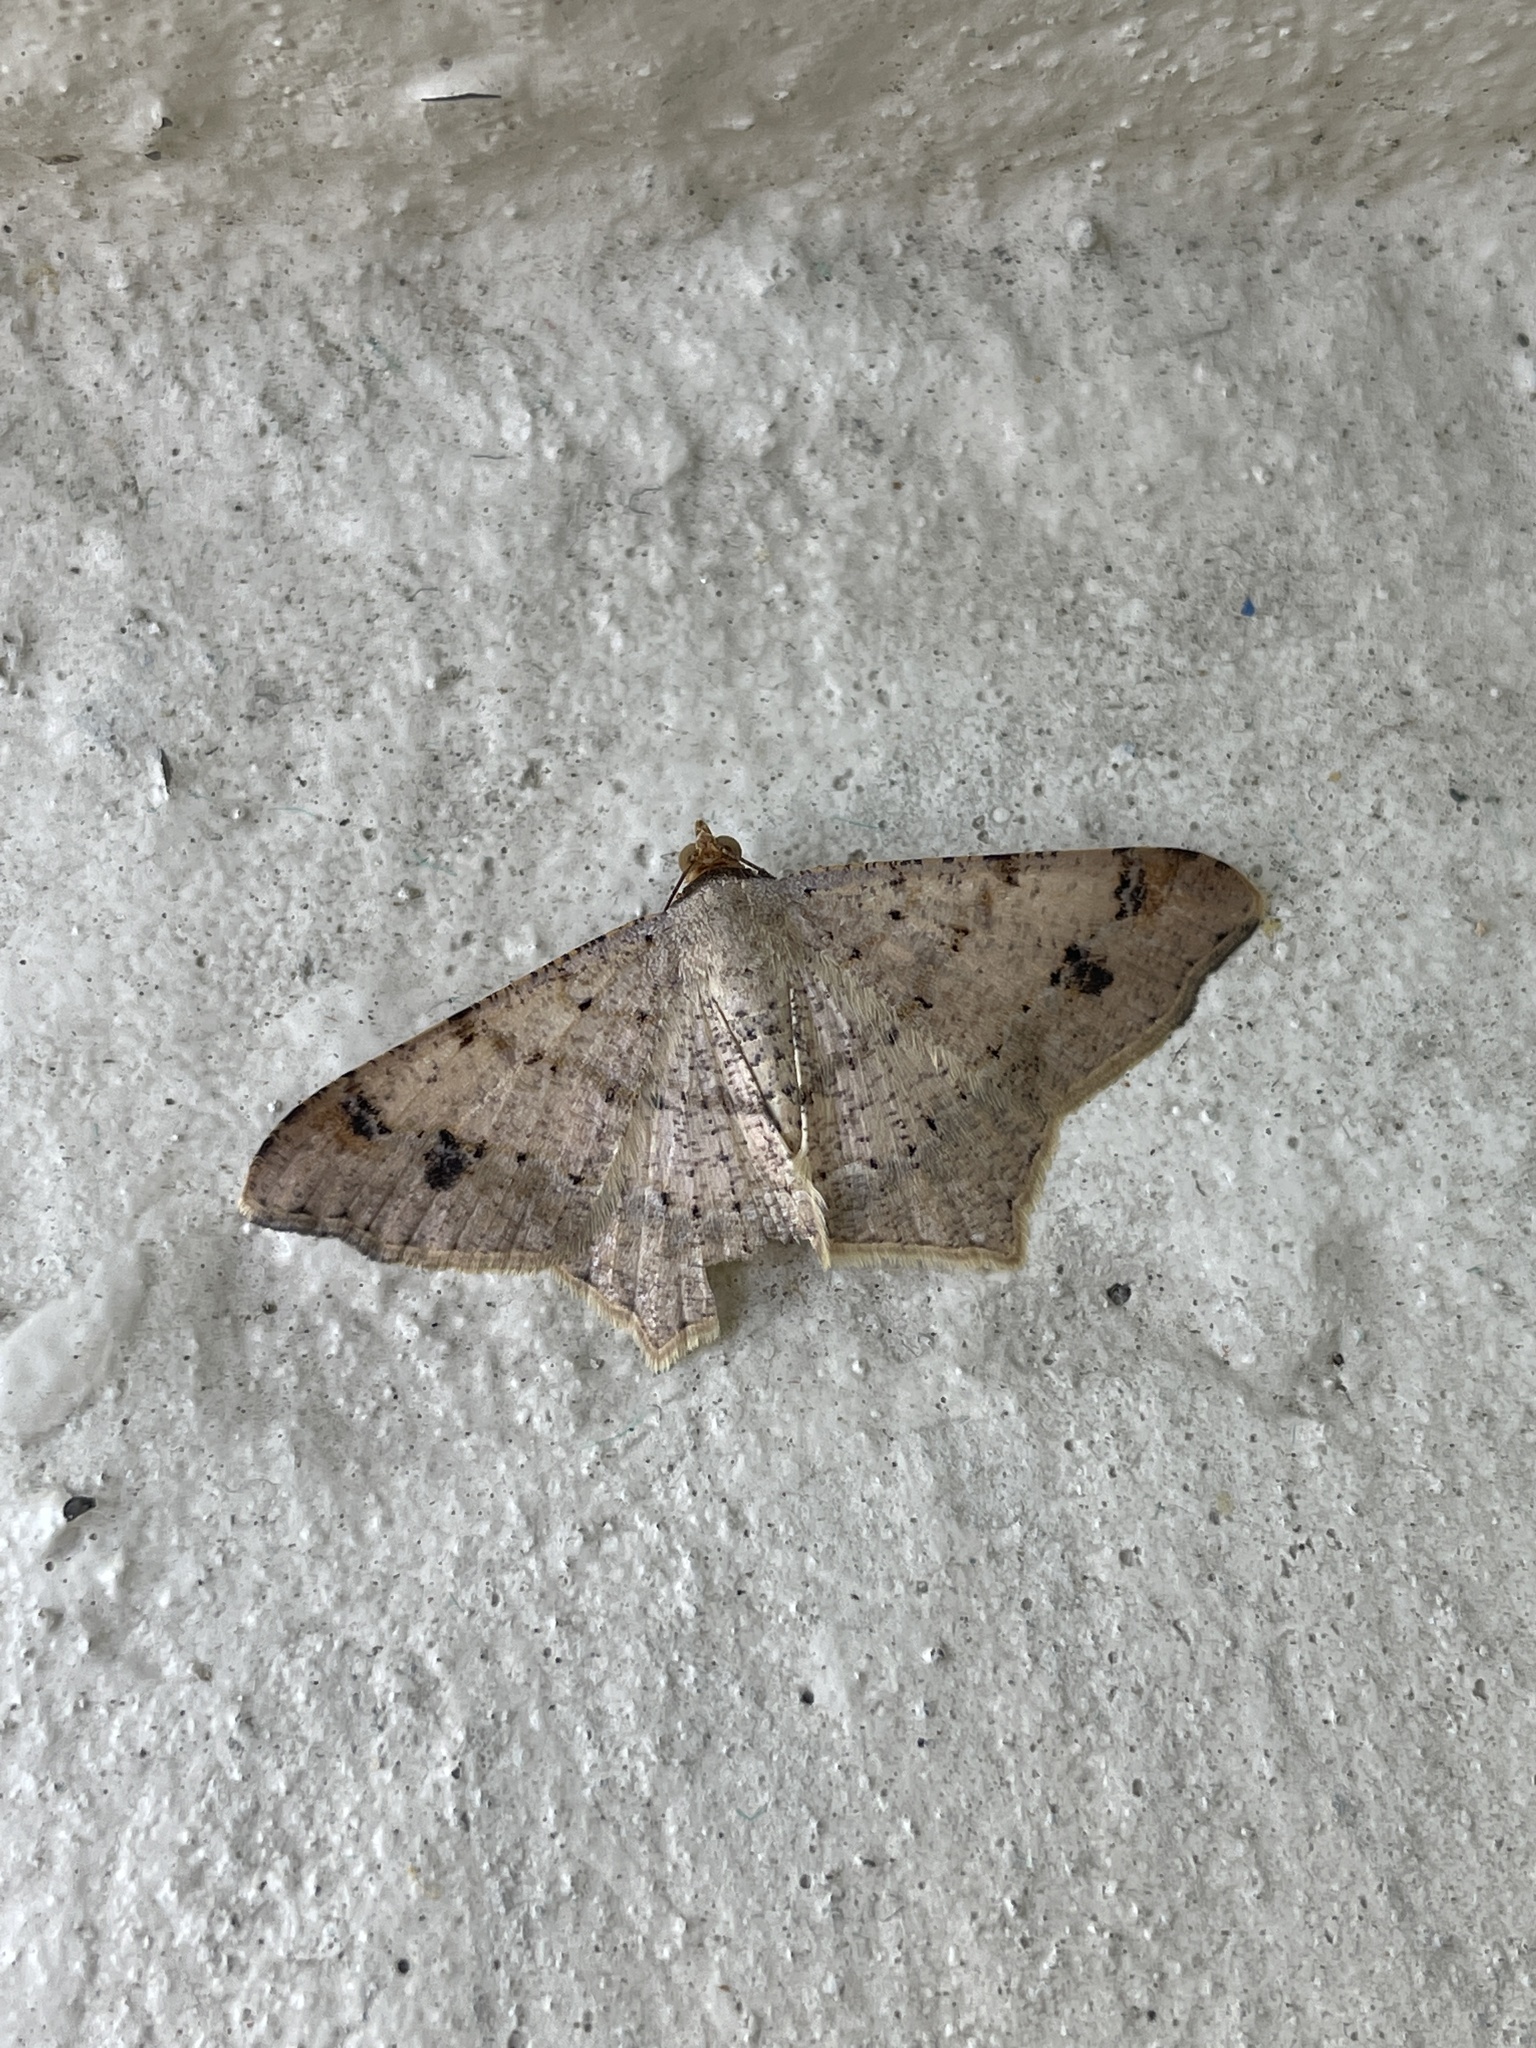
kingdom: Animalia
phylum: Arthropoda
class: Insecta
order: Lepidoptera
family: Geometridae
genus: Macaria
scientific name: Macaria abydata
